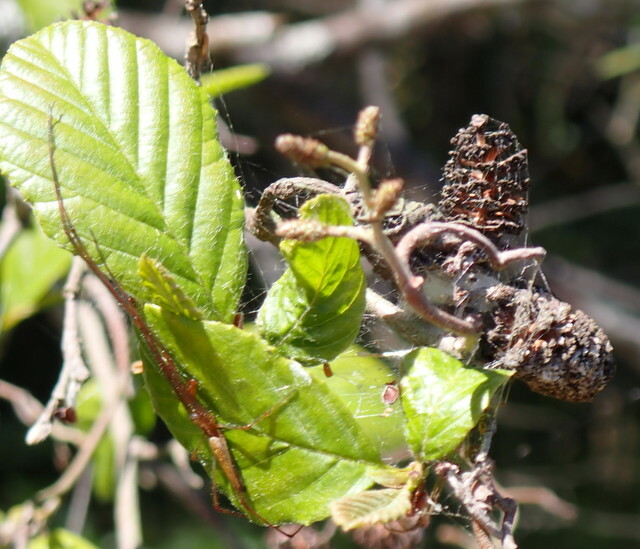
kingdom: Plantae
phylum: Tracheophyta
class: Magnoliopsida
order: Fagales
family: Betulaceae
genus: Alnus
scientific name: Alnus serrulata
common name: Hazel alder
